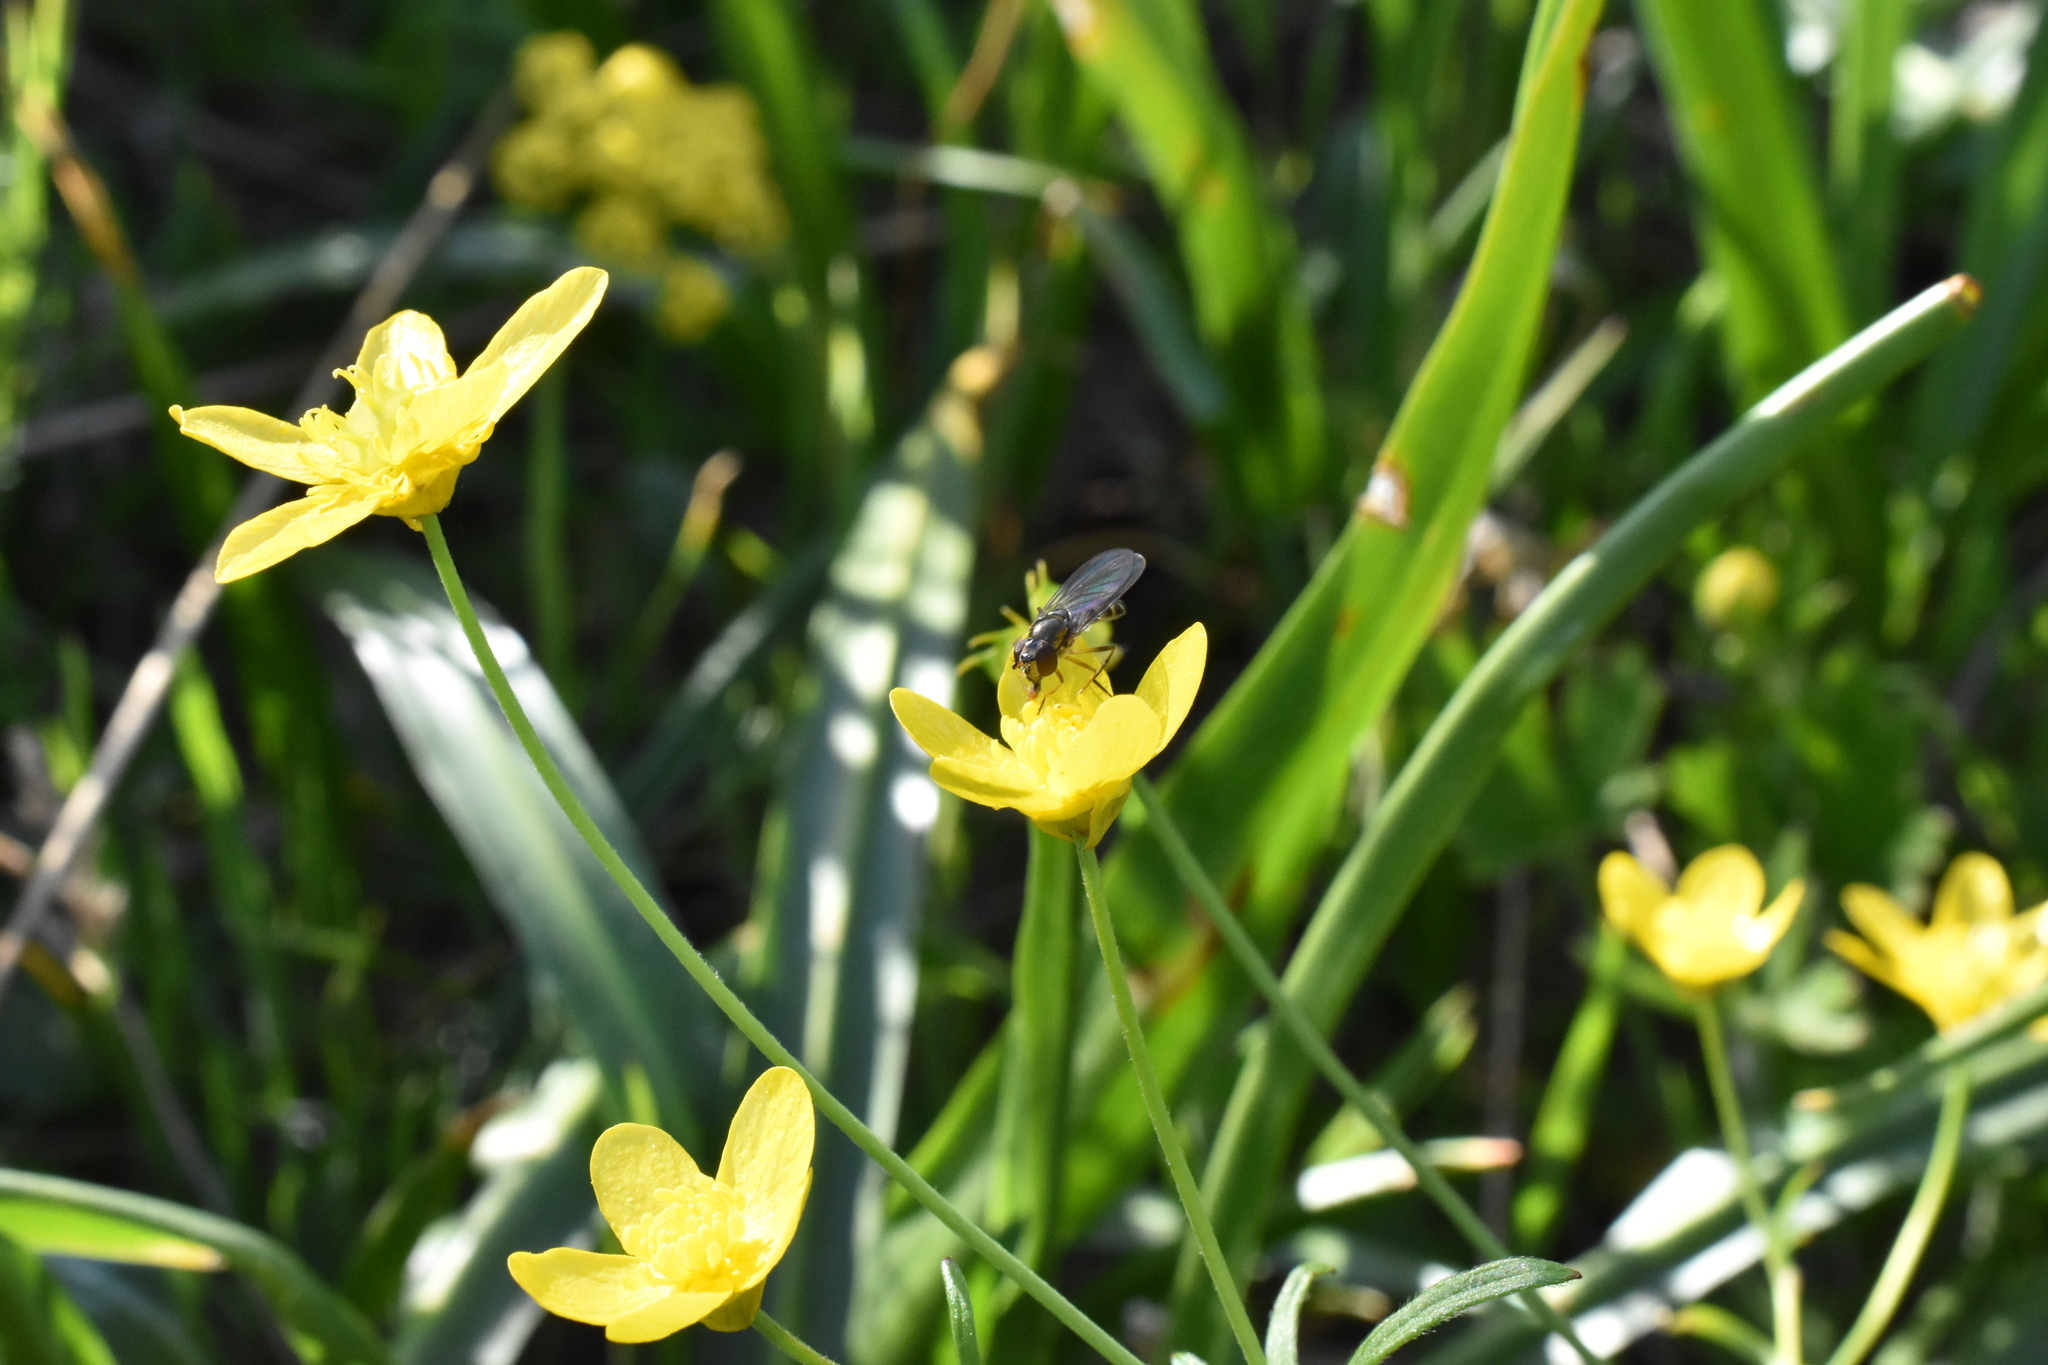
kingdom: Animalia
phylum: Arthropoda
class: Insecta
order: Diptera
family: Syrphidae
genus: Melanostoma
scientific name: Melanostoma mellina
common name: Hover fly
